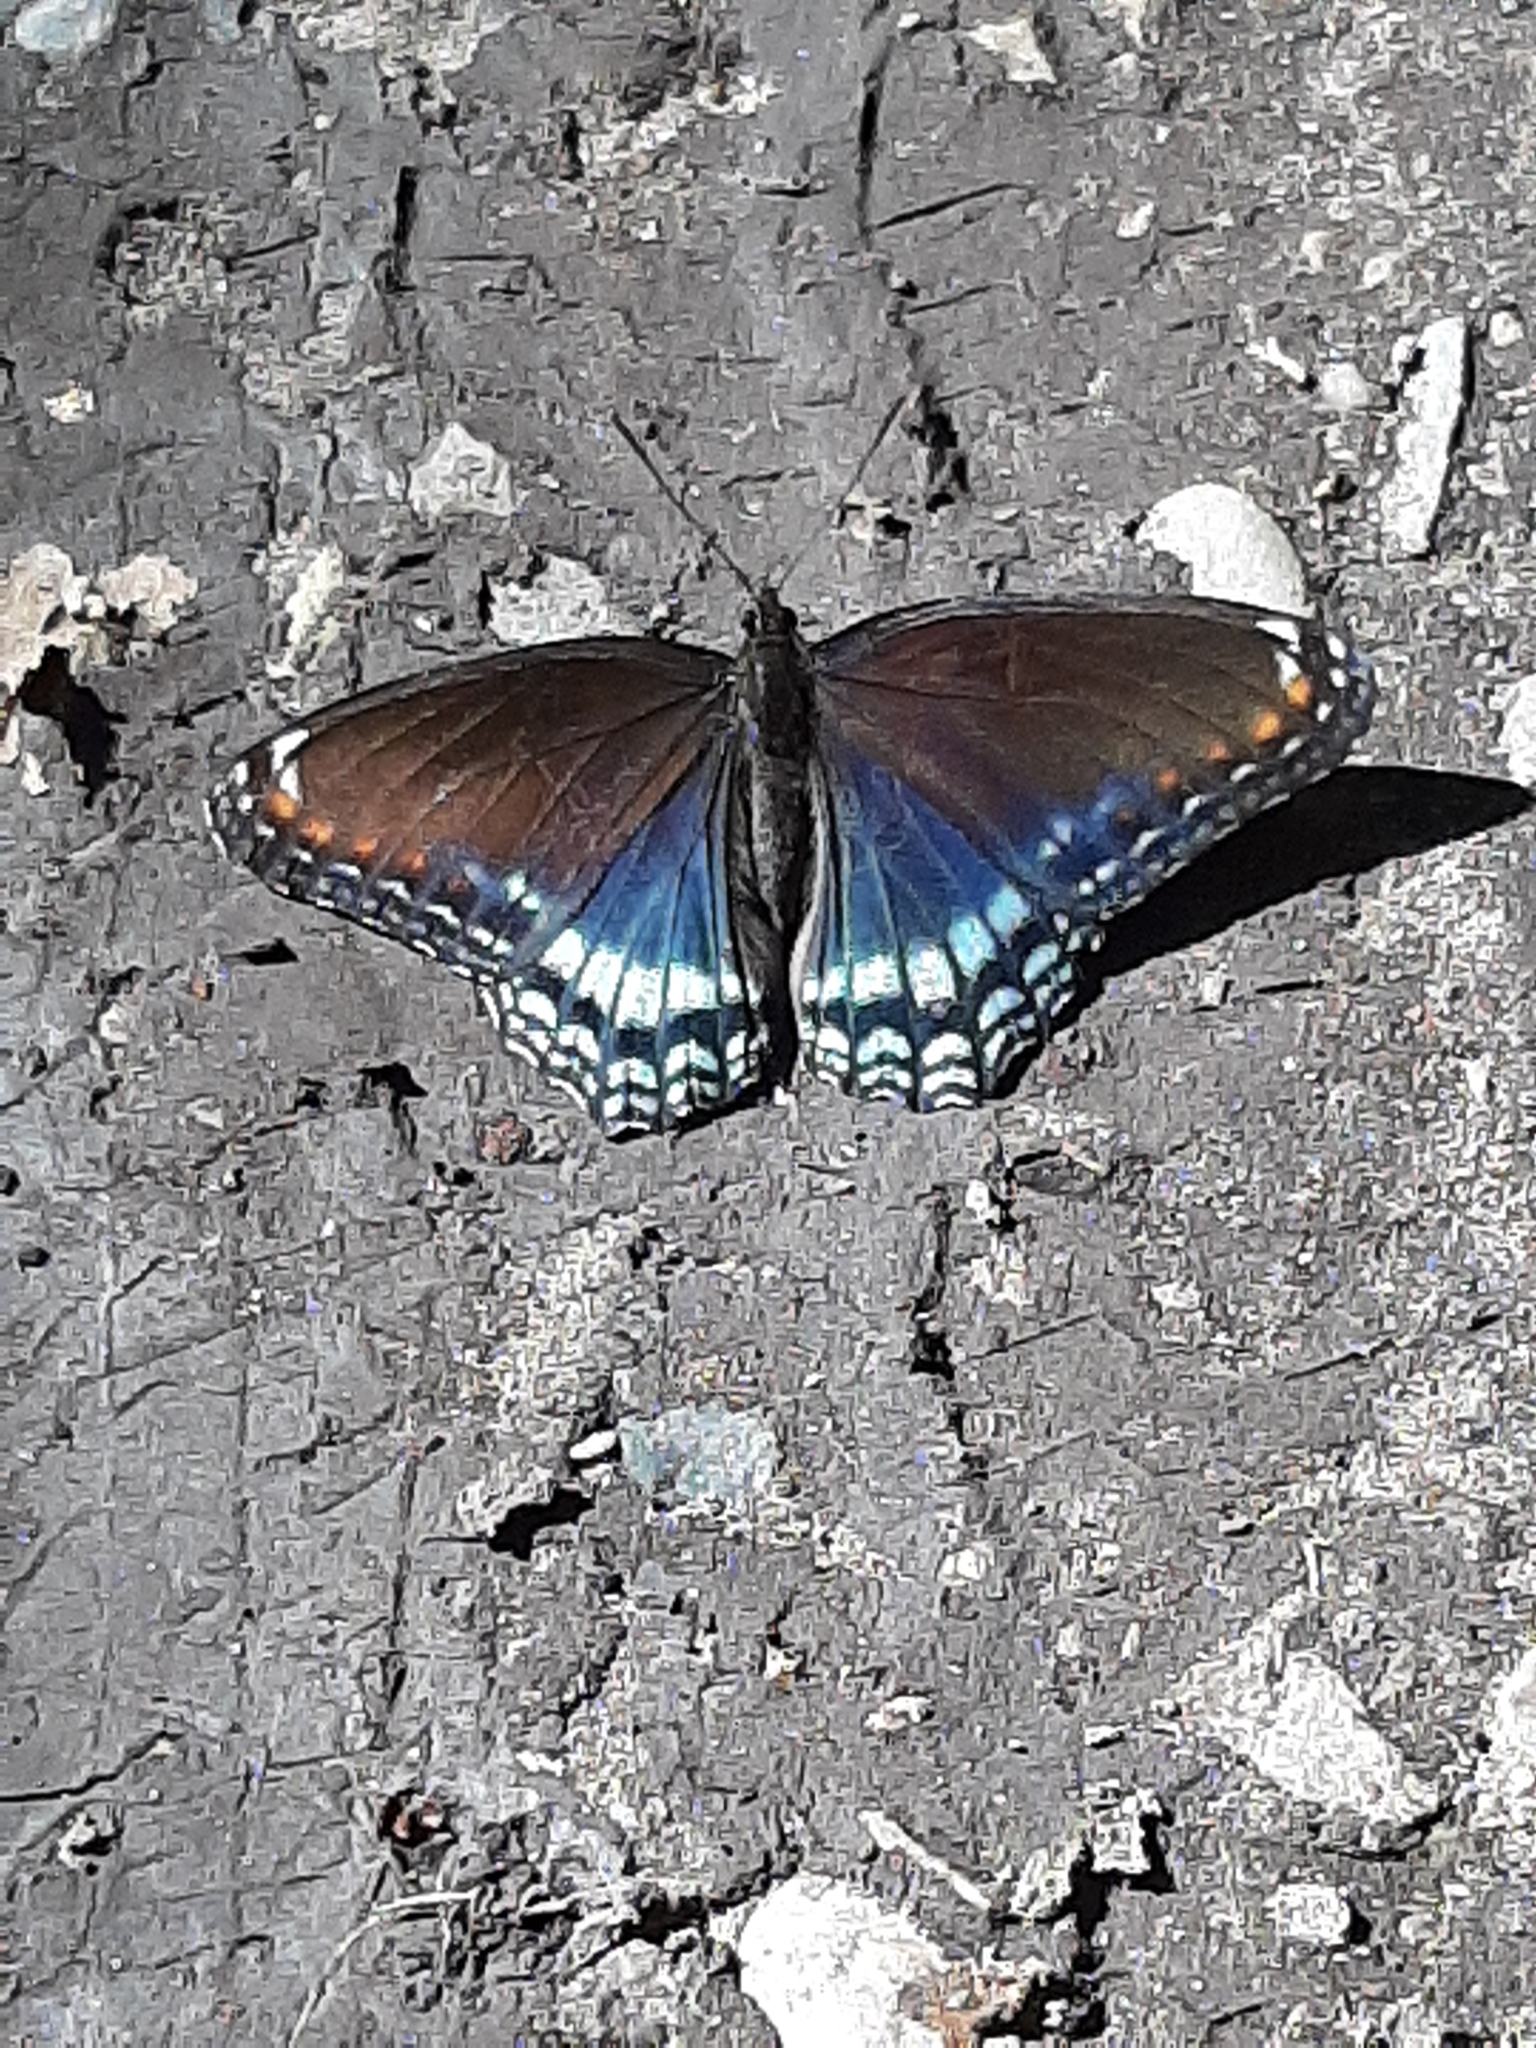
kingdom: Animalia
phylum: Arthropoda
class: Insecta
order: Lepidoptera
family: Nymphalidae
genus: Limenitis
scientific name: Limenitis astyanax
